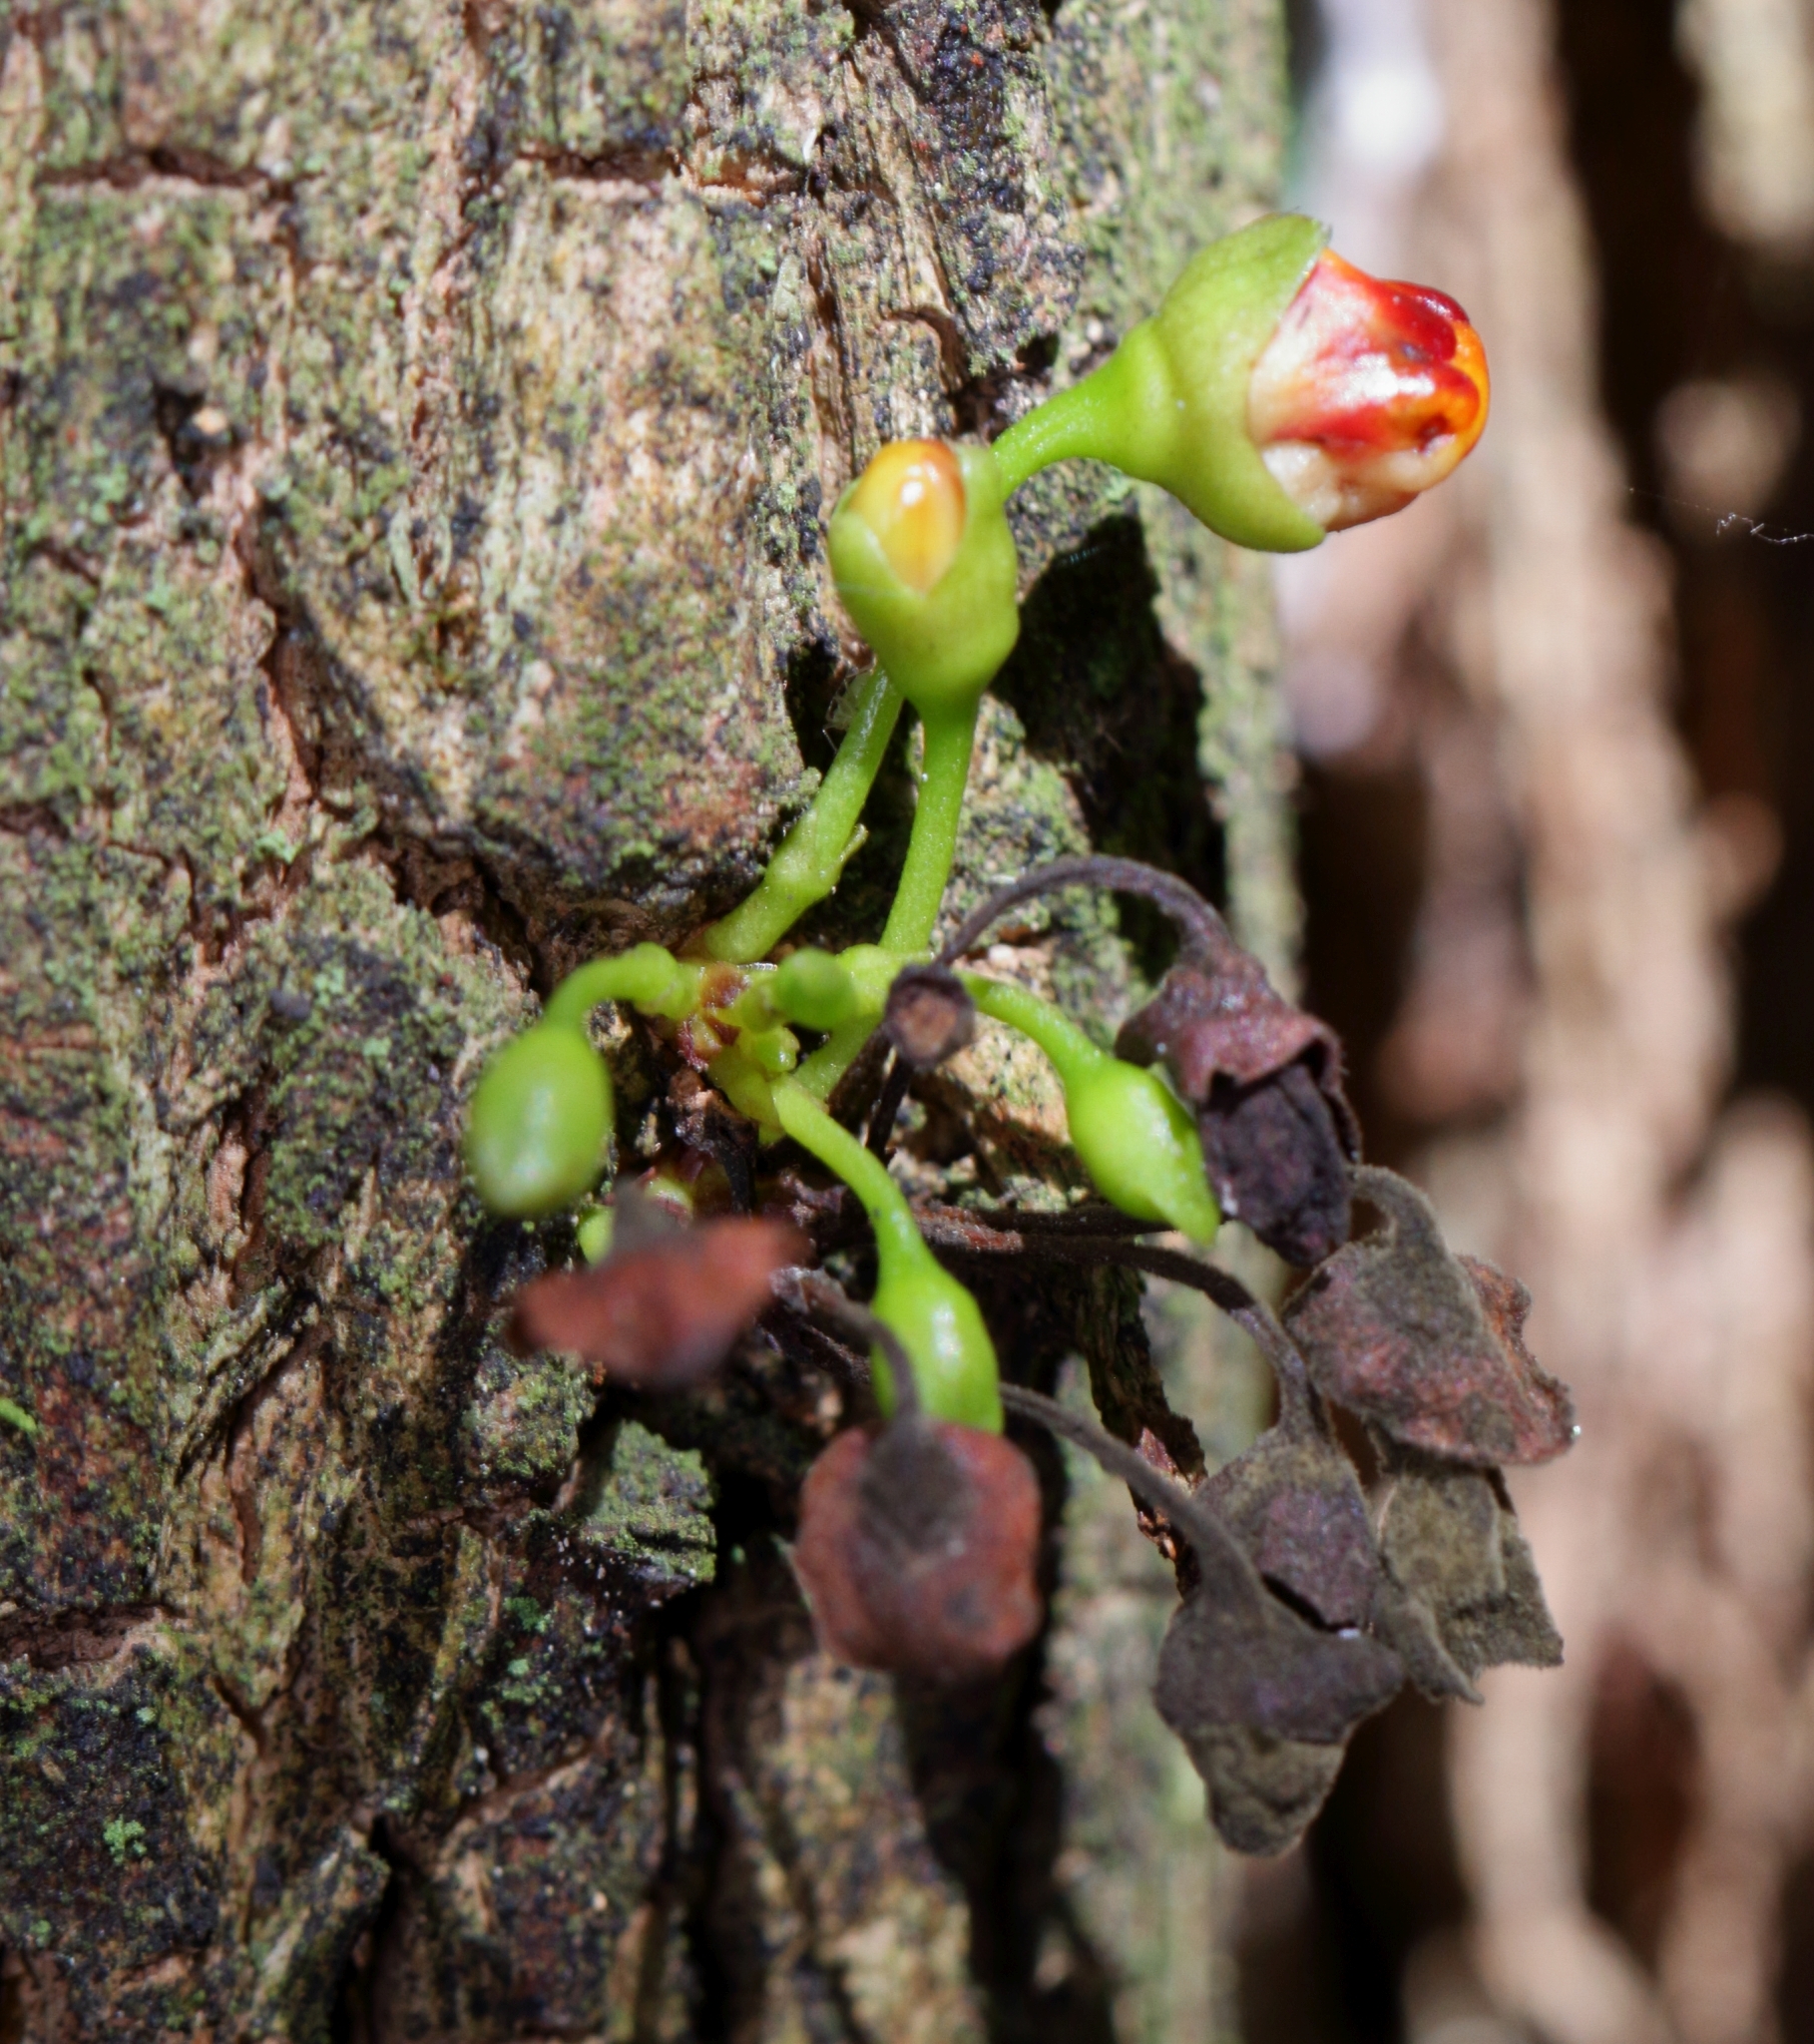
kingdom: Plantae
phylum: Tracheophyta
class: Magnoliopsida
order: Lamiales
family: Stilbaceae
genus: Halleria
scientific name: Halleria lucida
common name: Tree fuschia
